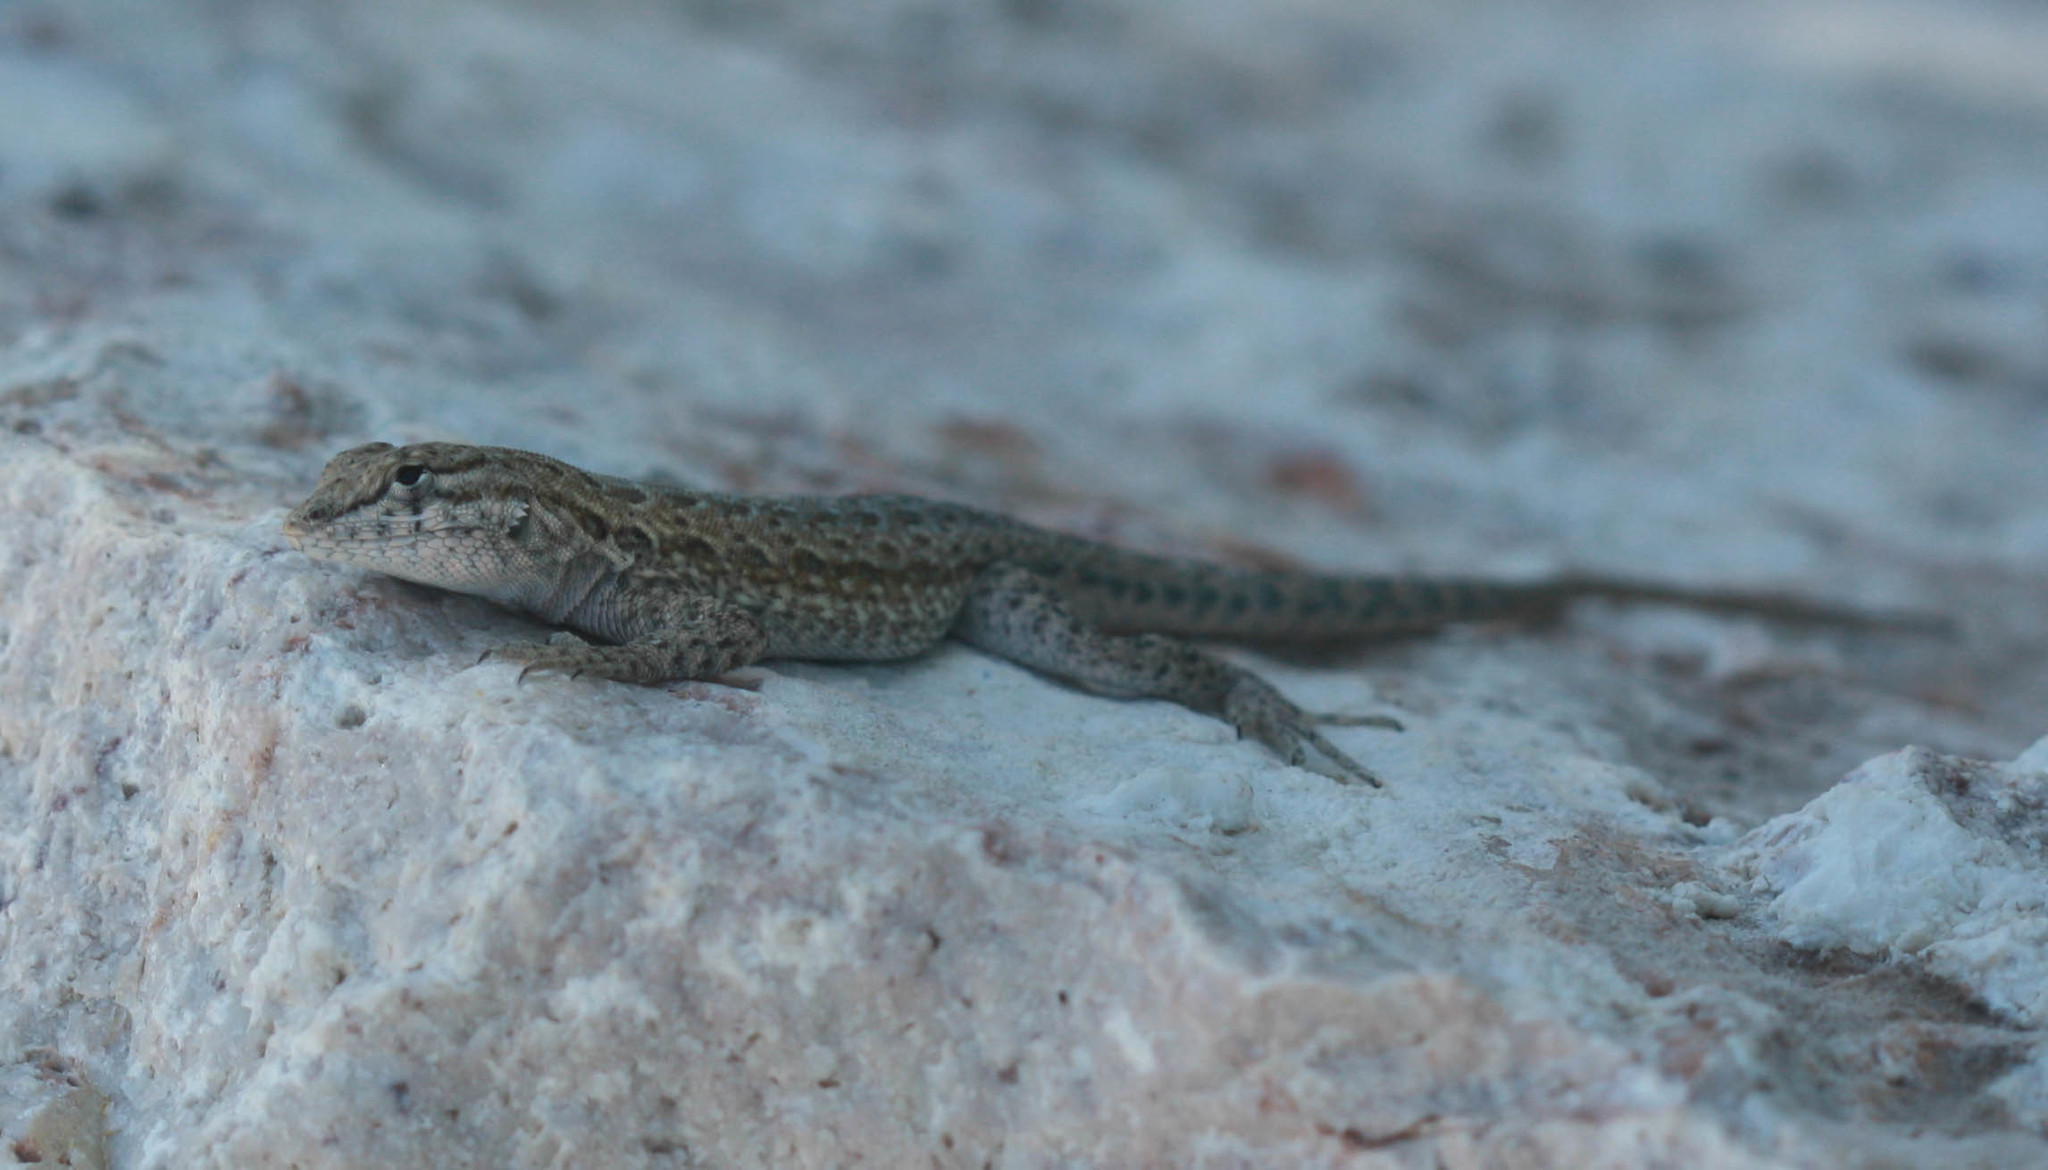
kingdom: Animalia
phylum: Chordata
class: Squamata
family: Phrynosomatidae
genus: Uta
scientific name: Uta stansburiana
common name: Side-blotched lizard
